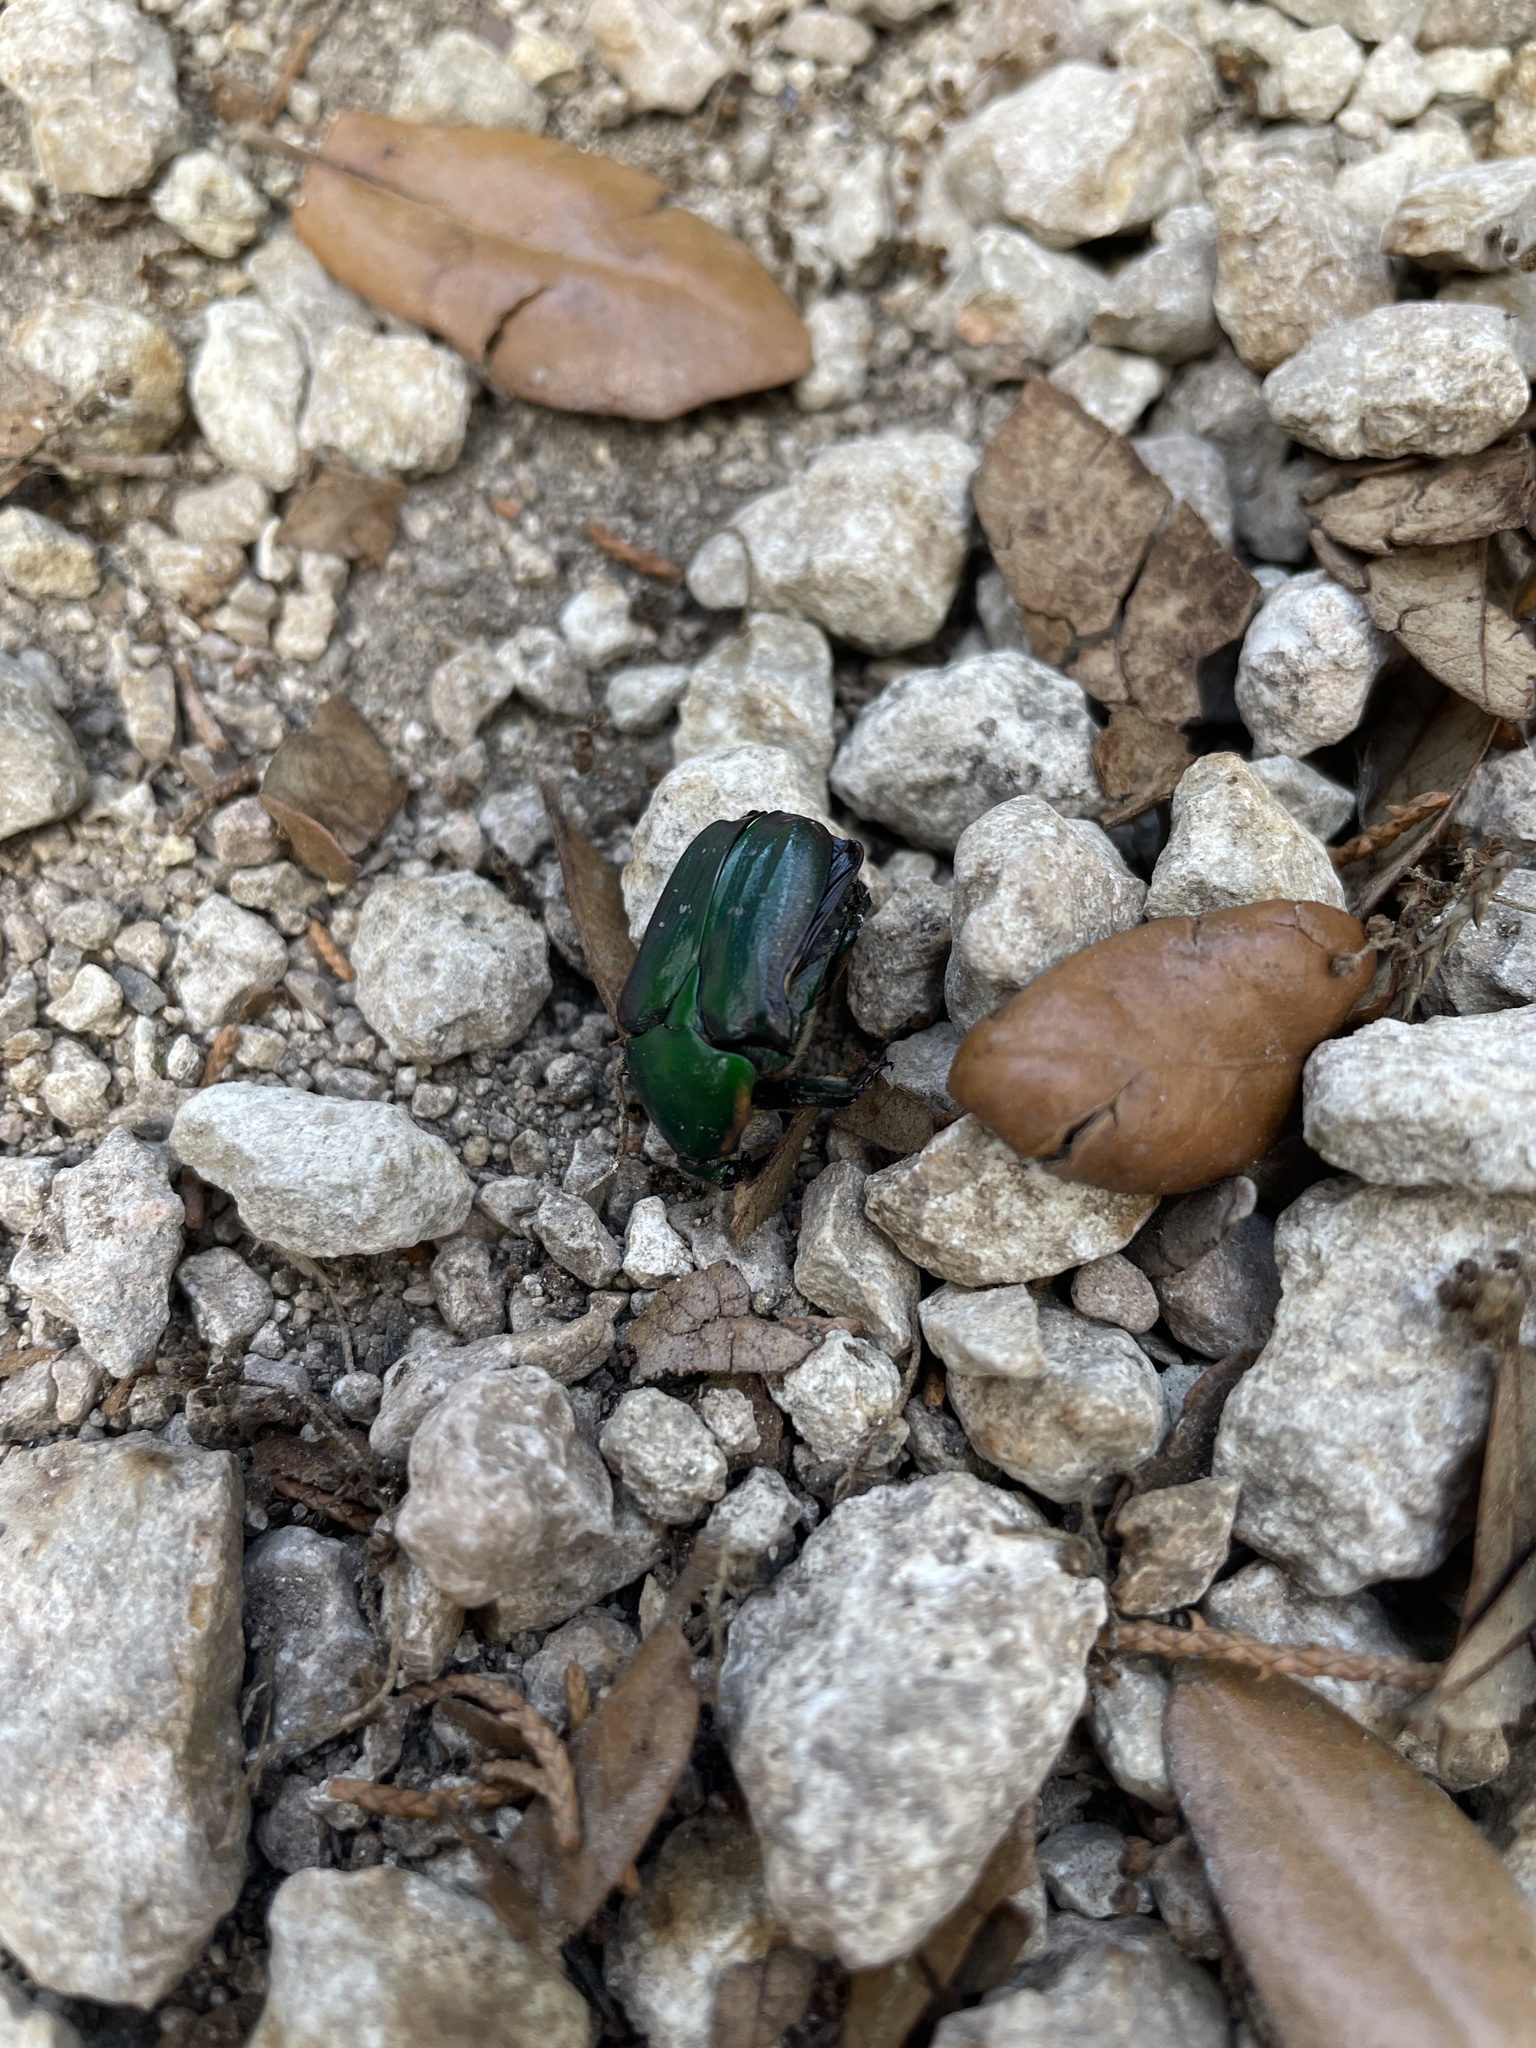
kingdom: Animalia
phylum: Arthropoda
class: Insecta
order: Coleoptera
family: Scarabaeidae
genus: Euphoria
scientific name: Euphoria fulgida
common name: Emerald euphoria
